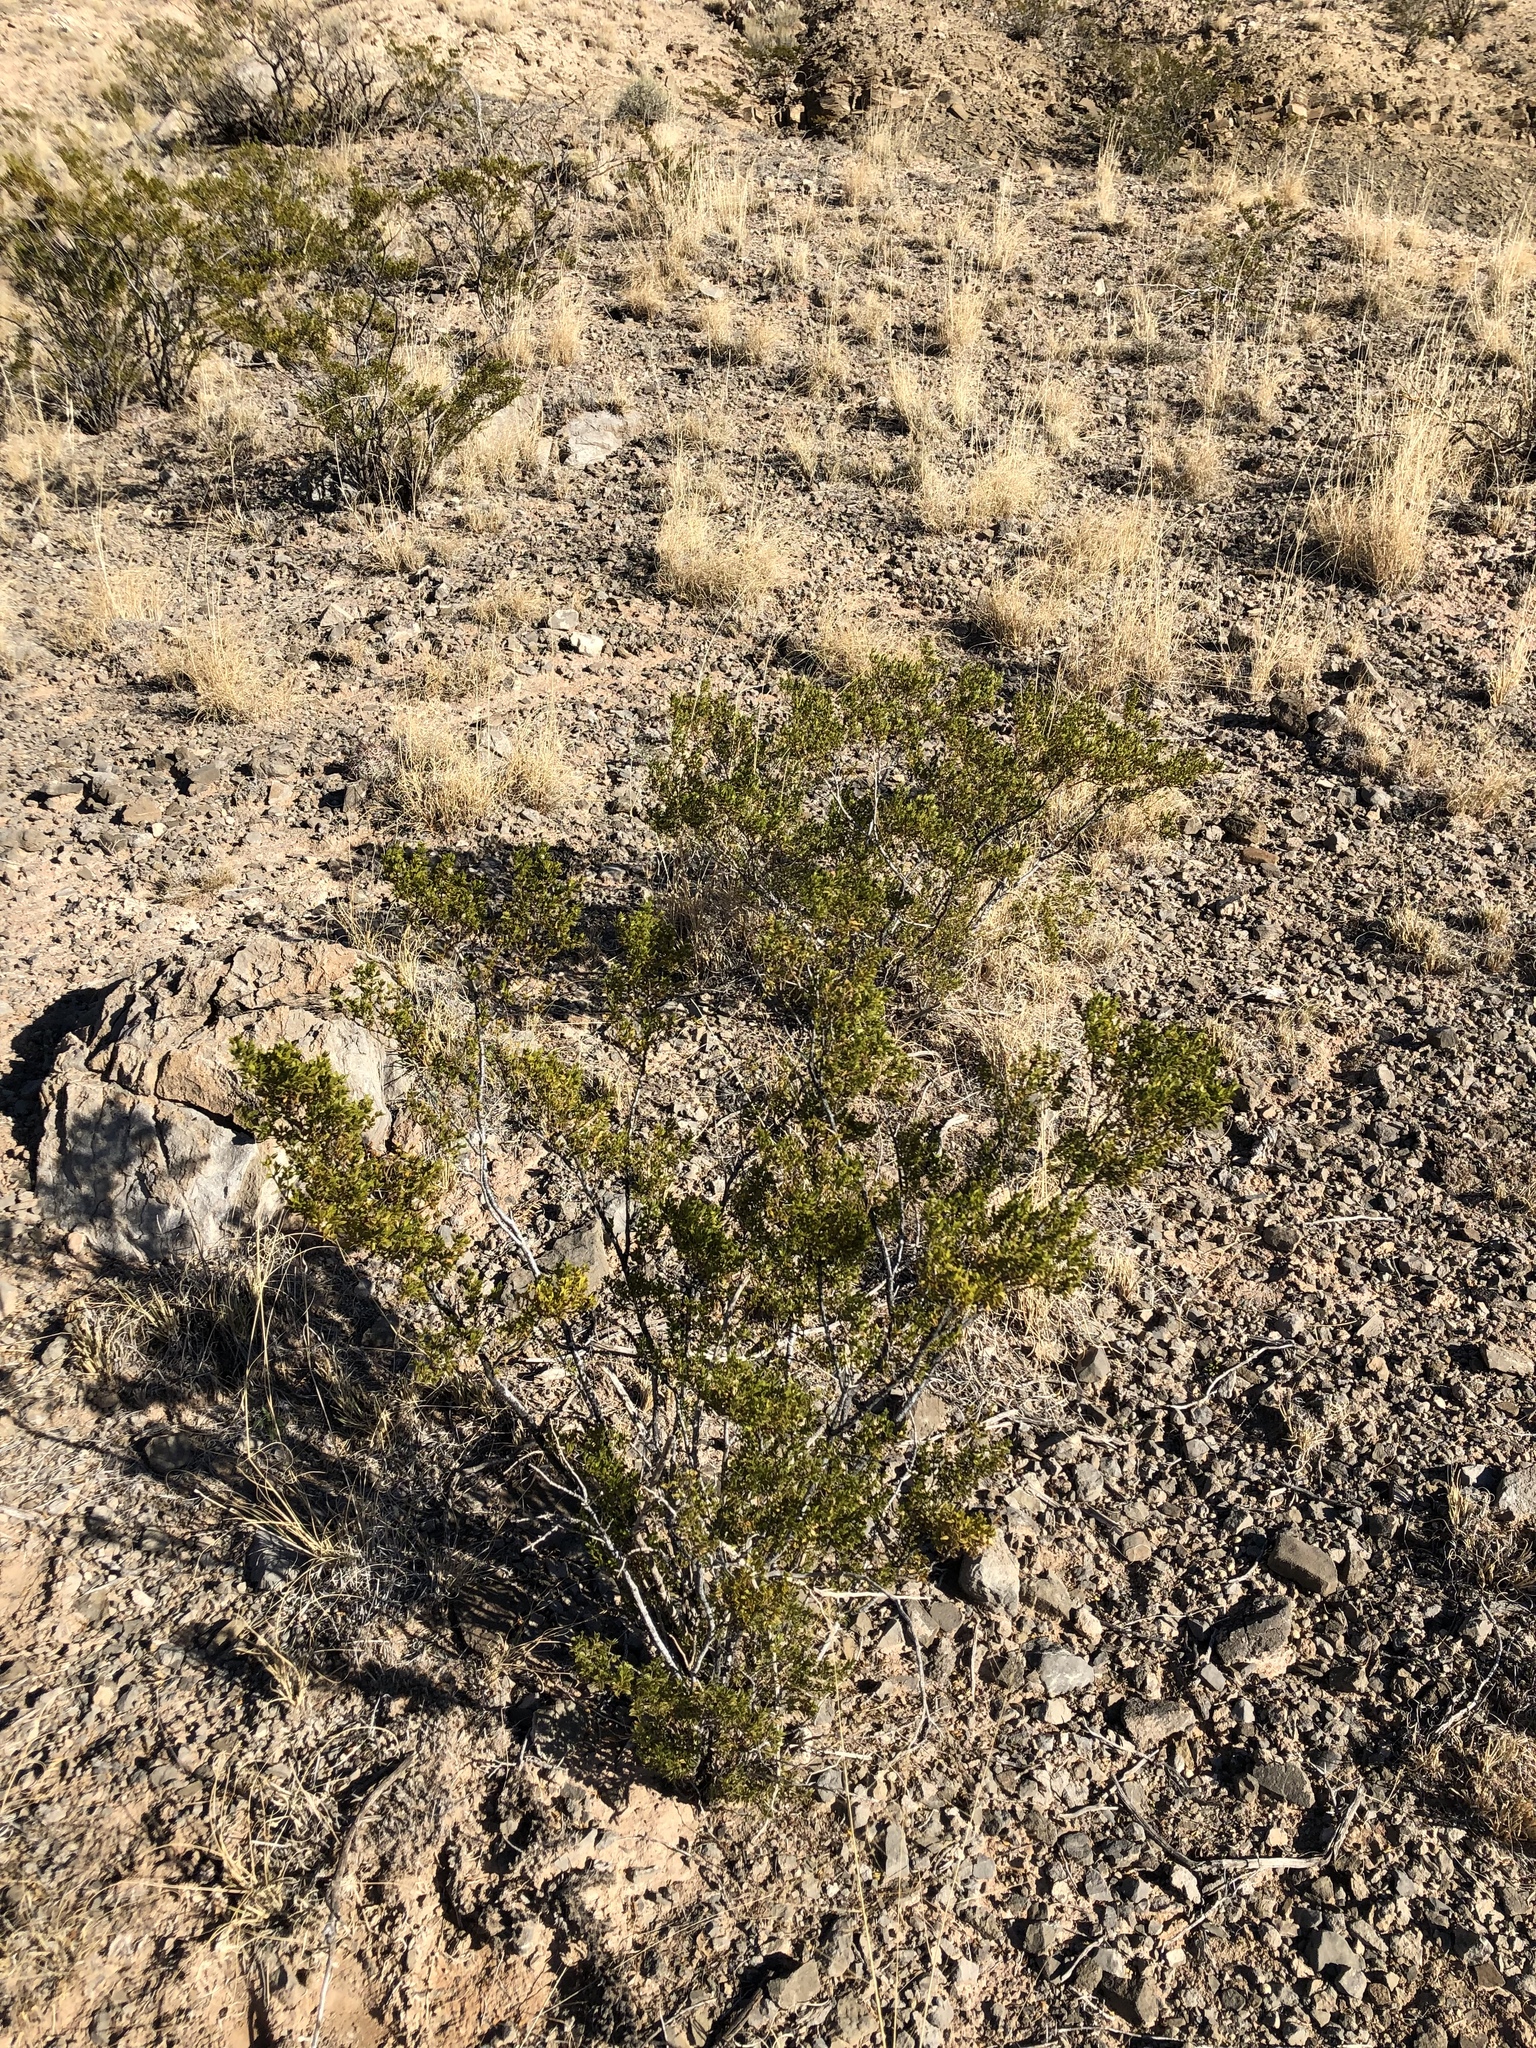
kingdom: Plantae
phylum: Tracheophyta
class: Magnoliopsida
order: Zygophyllales
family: Zygophyllaceae
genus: Larrea
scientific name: Larrea tridentata
